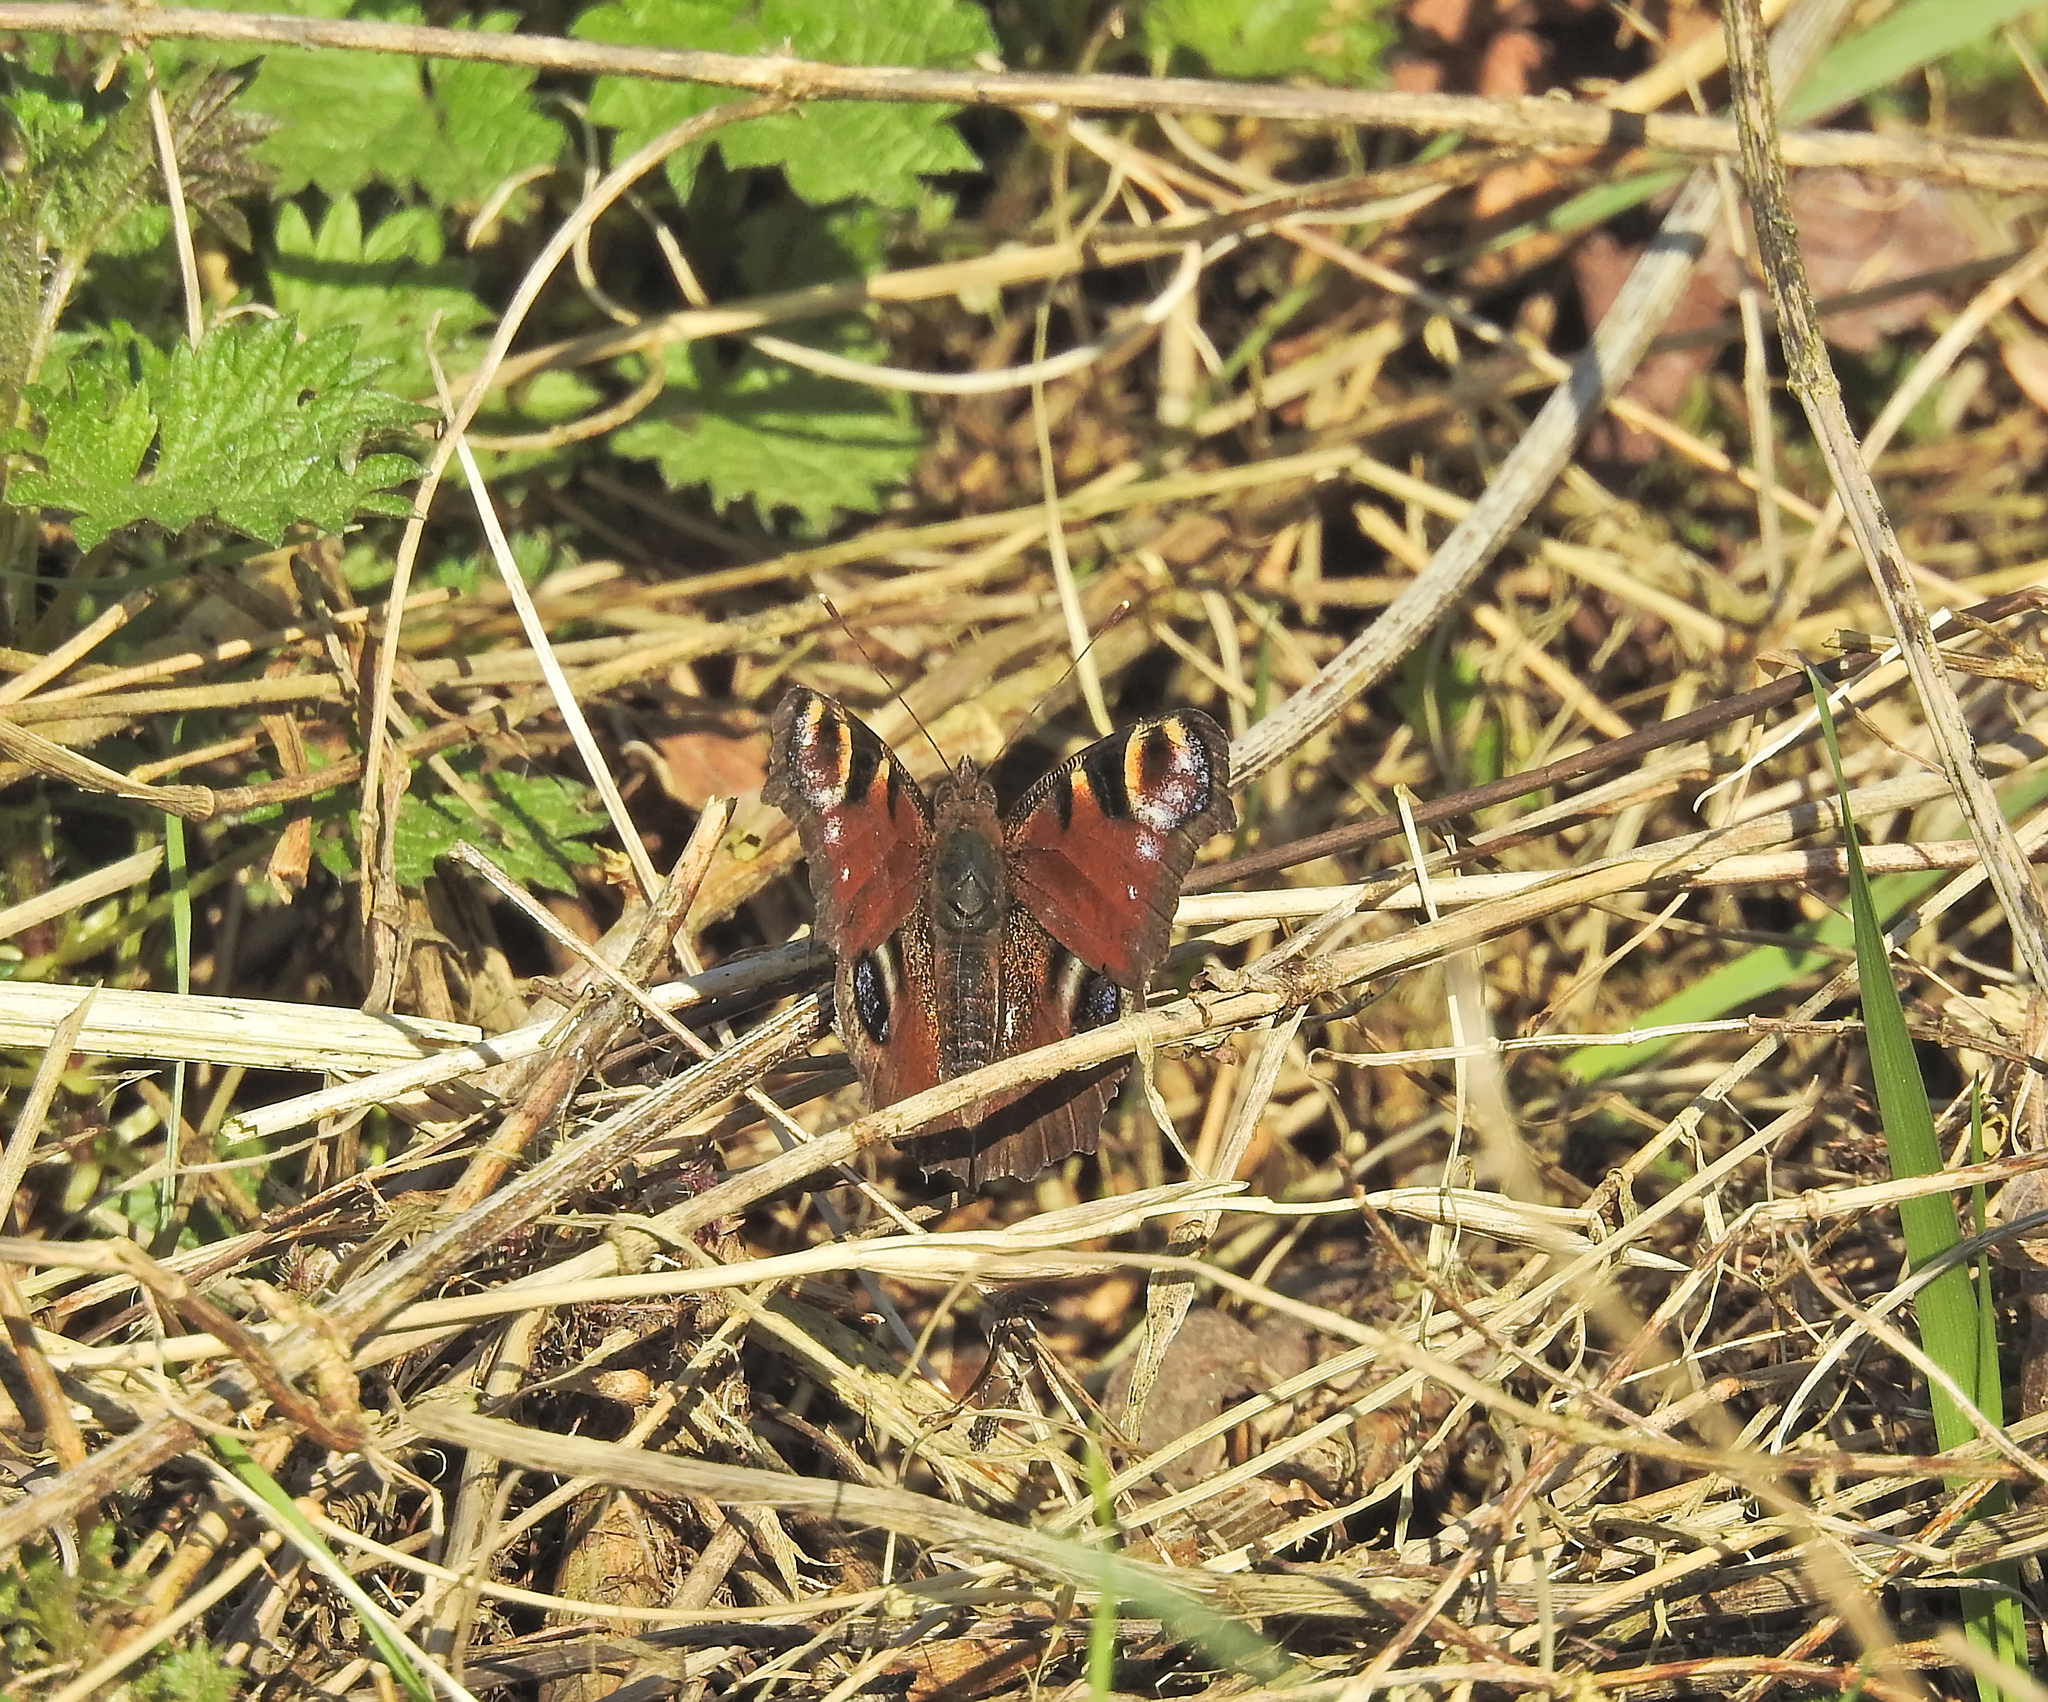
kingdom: Animalia
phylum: Arthropoda
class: Insecta
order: Lepidoptera
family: Nymphalidae
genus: Aglais
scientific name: Aglais io
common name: Peacock
